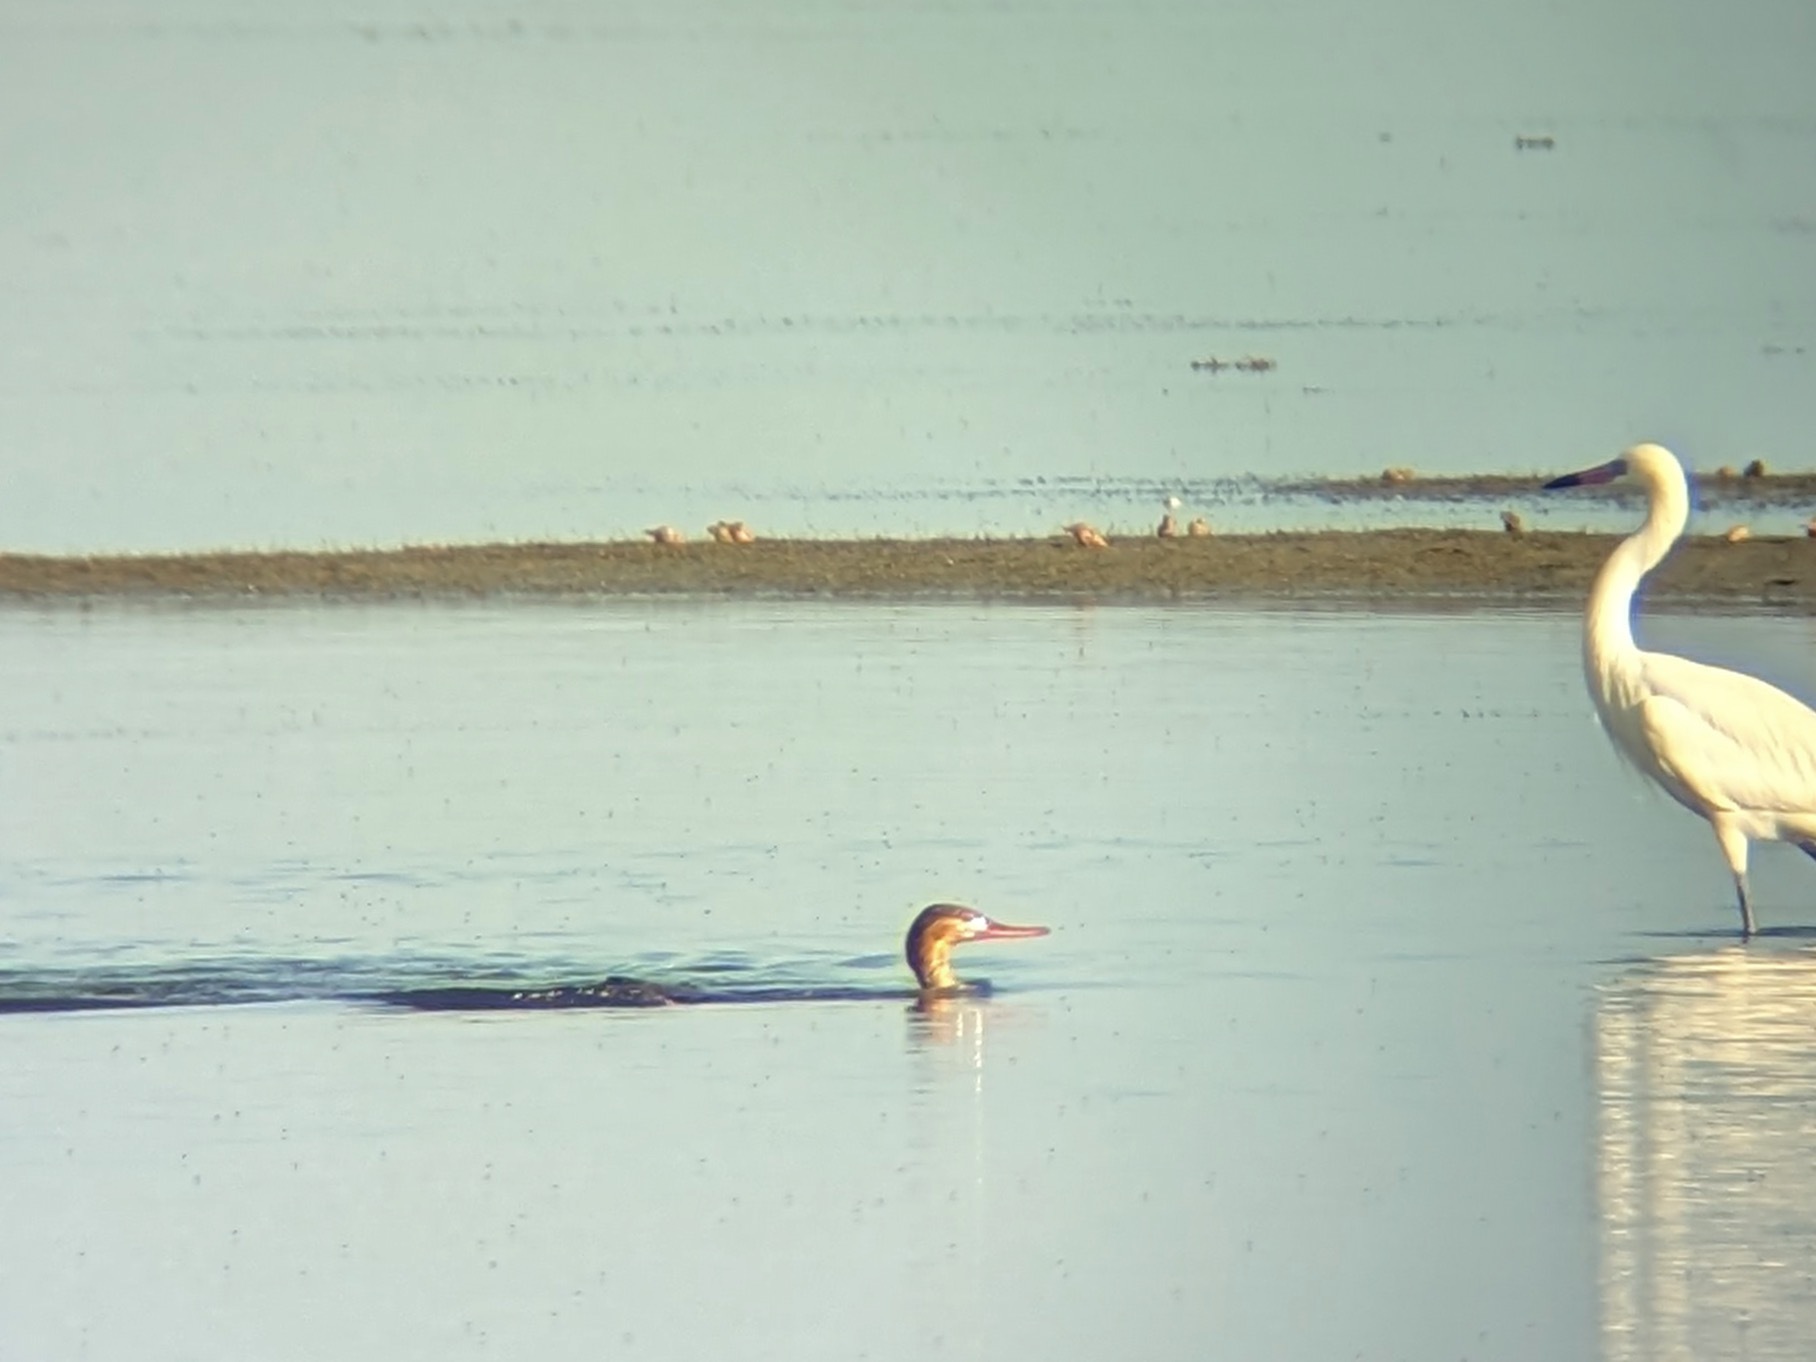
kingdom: Animalia
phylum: Chordata
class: Aves
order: Anseriformes
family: Anatidae
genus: Mergus
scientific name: Mergus serrator
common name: Red-breasted merganser
